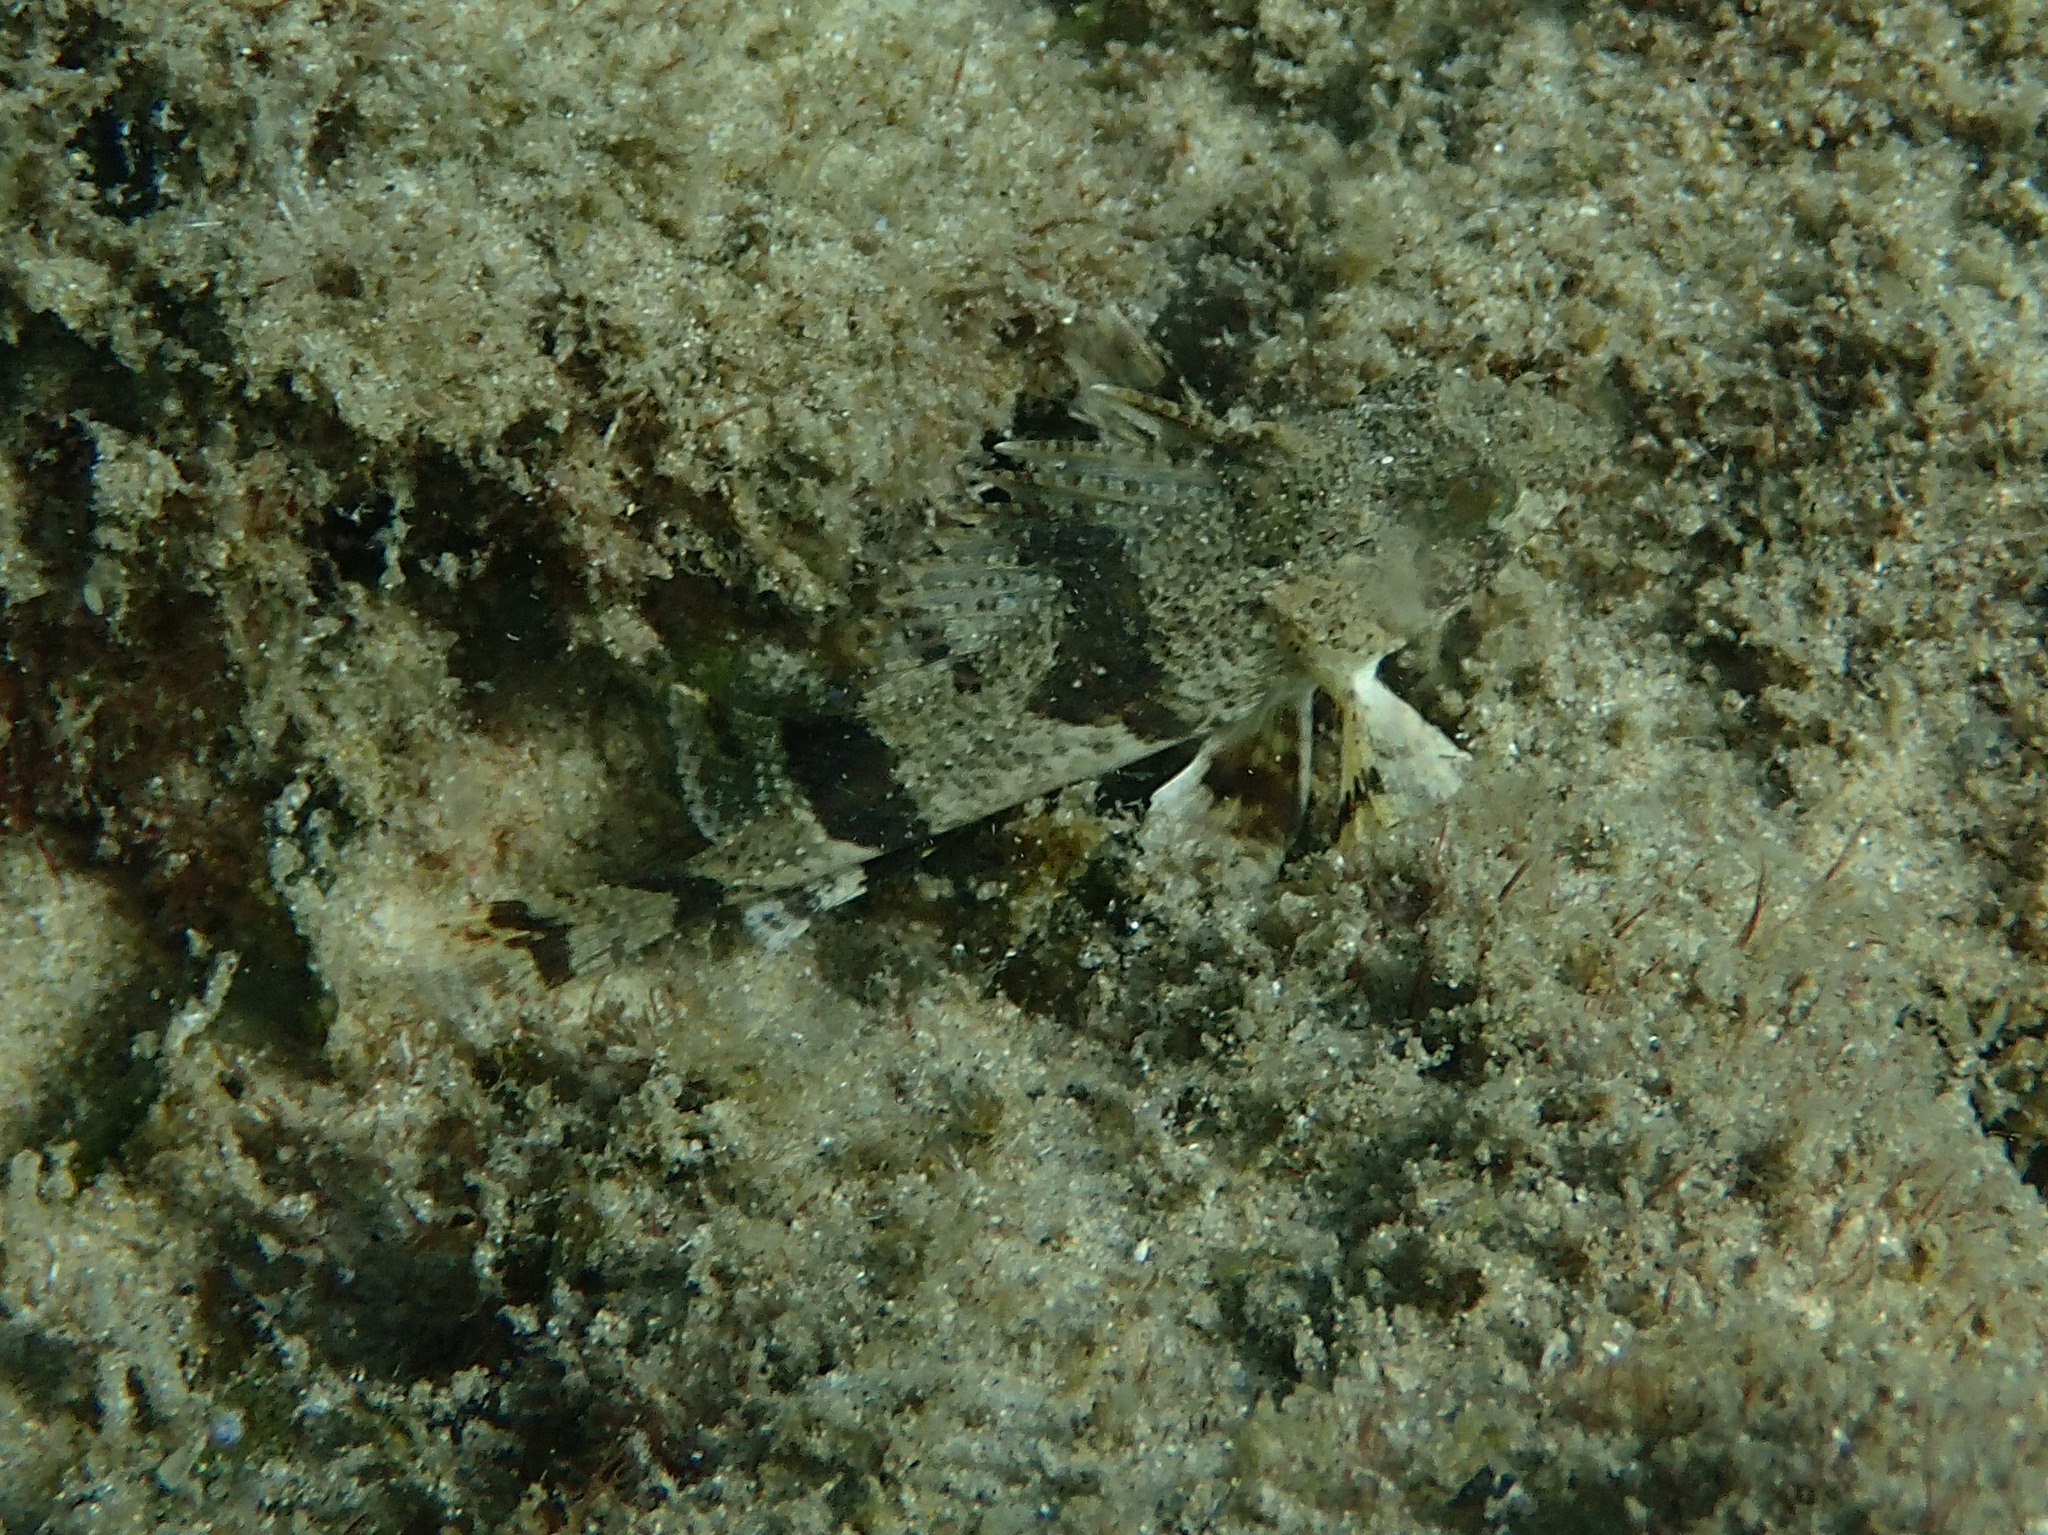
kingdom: Animalia
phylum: Chordata
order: Scorpaeniformes
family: Tetrarogidae
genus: Centropogon
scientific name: Centropogon australis
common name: Fortescue
